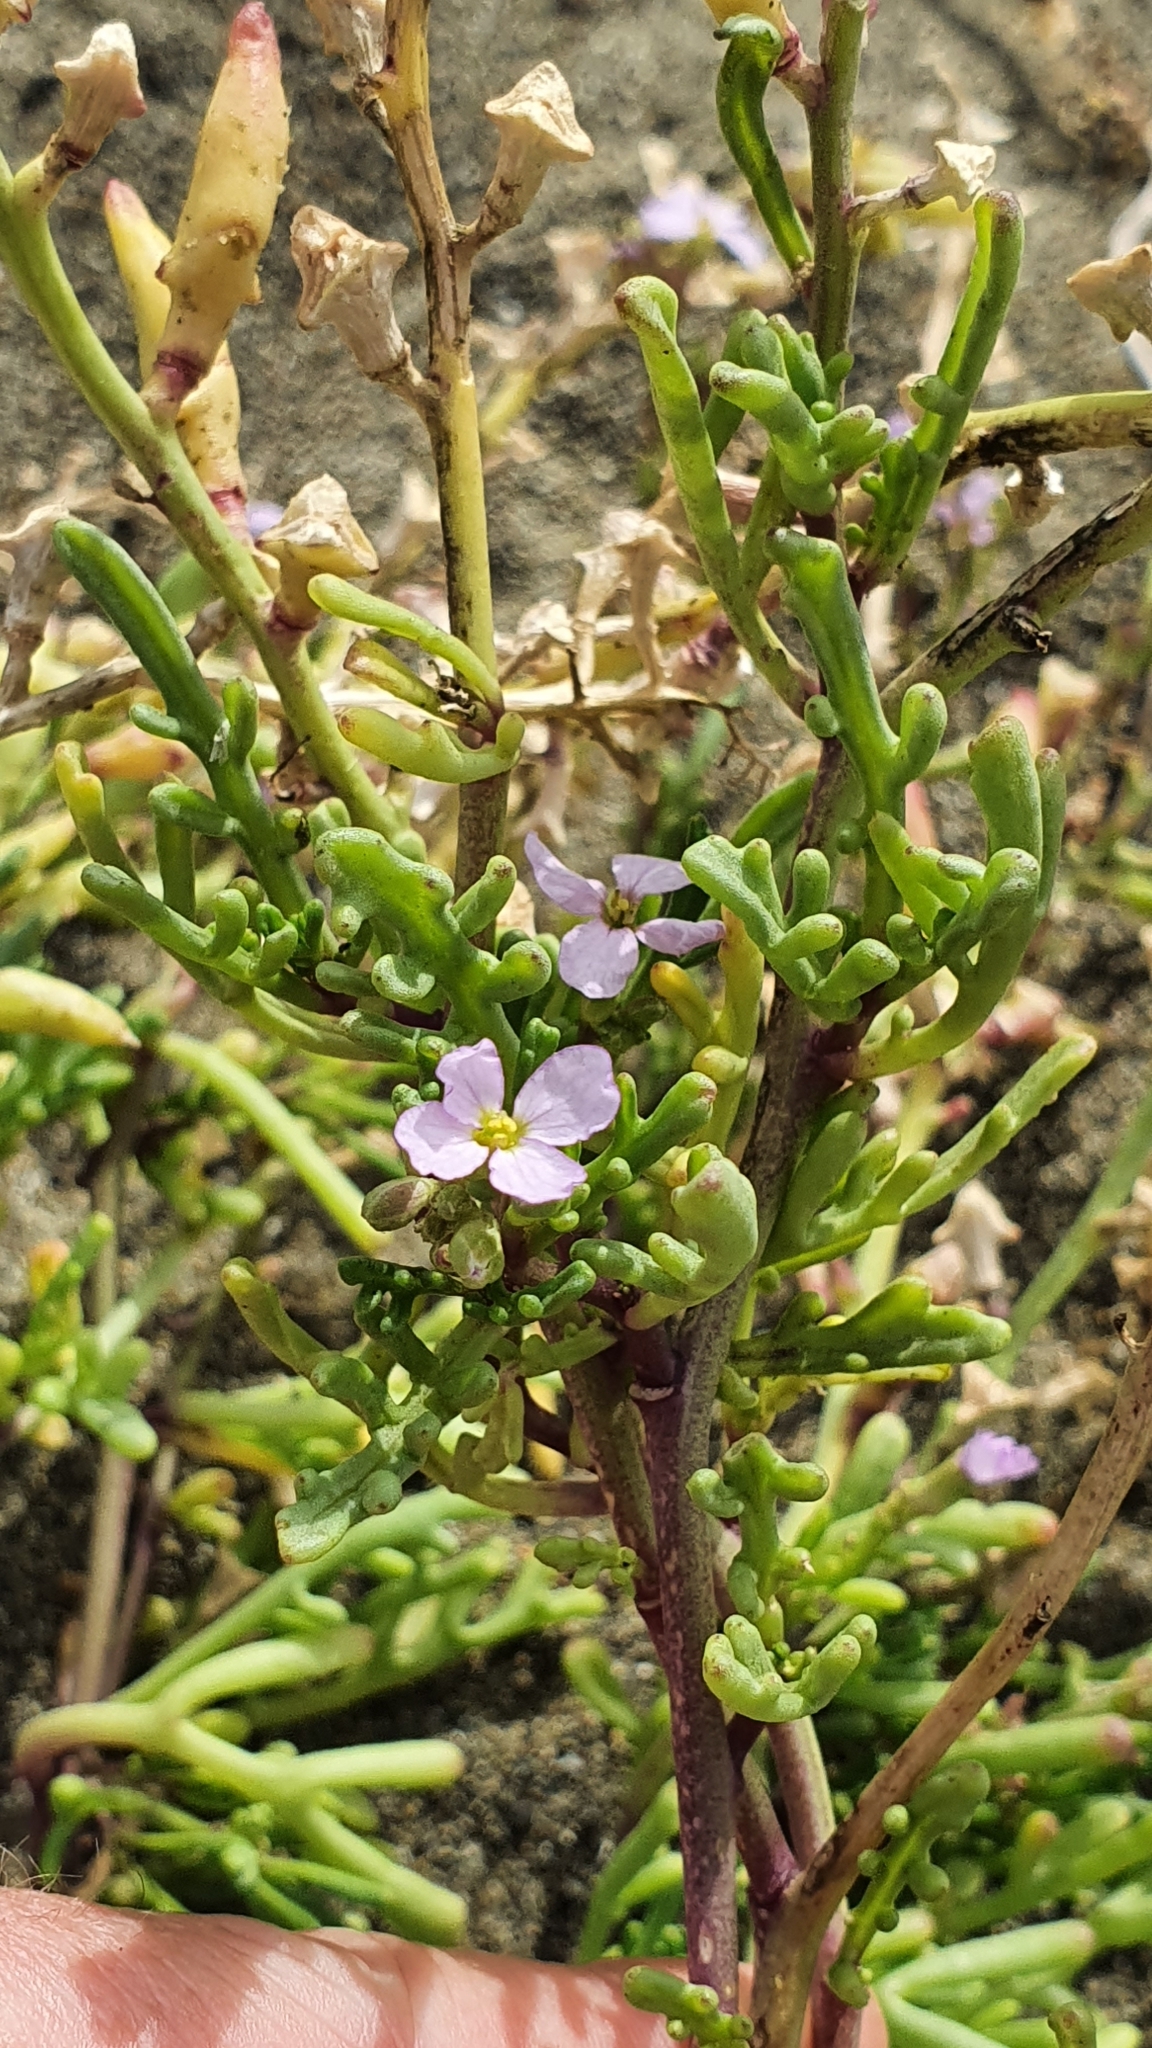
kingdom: Plantae
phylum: Tracheophyta
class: Magnoliopsida
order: Brassicales
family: Brassicaceae
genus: Cakile
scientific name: Cakile maritima
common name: Sea rocket
